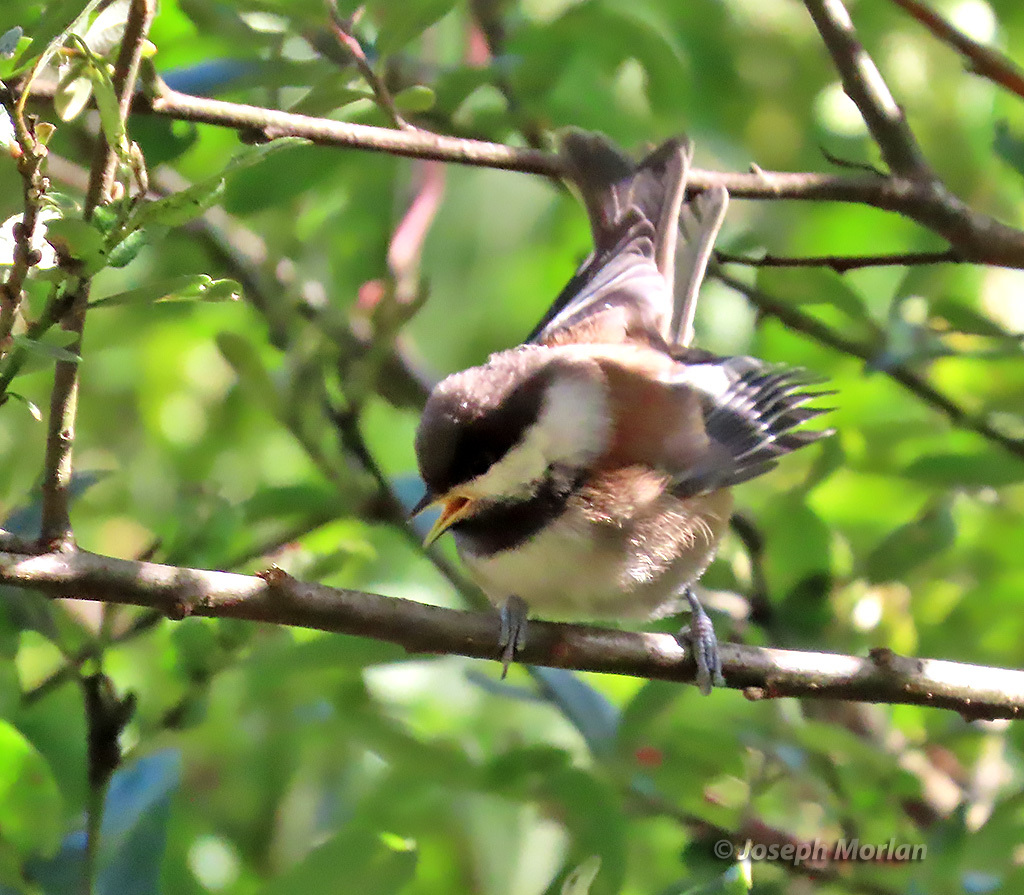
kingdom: Animalia
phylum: Chordata
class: Aves
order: Passeriformes
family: Paridae
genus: Poecile
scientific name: Poecile rufescens
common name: Chestnut-backed chickadee
